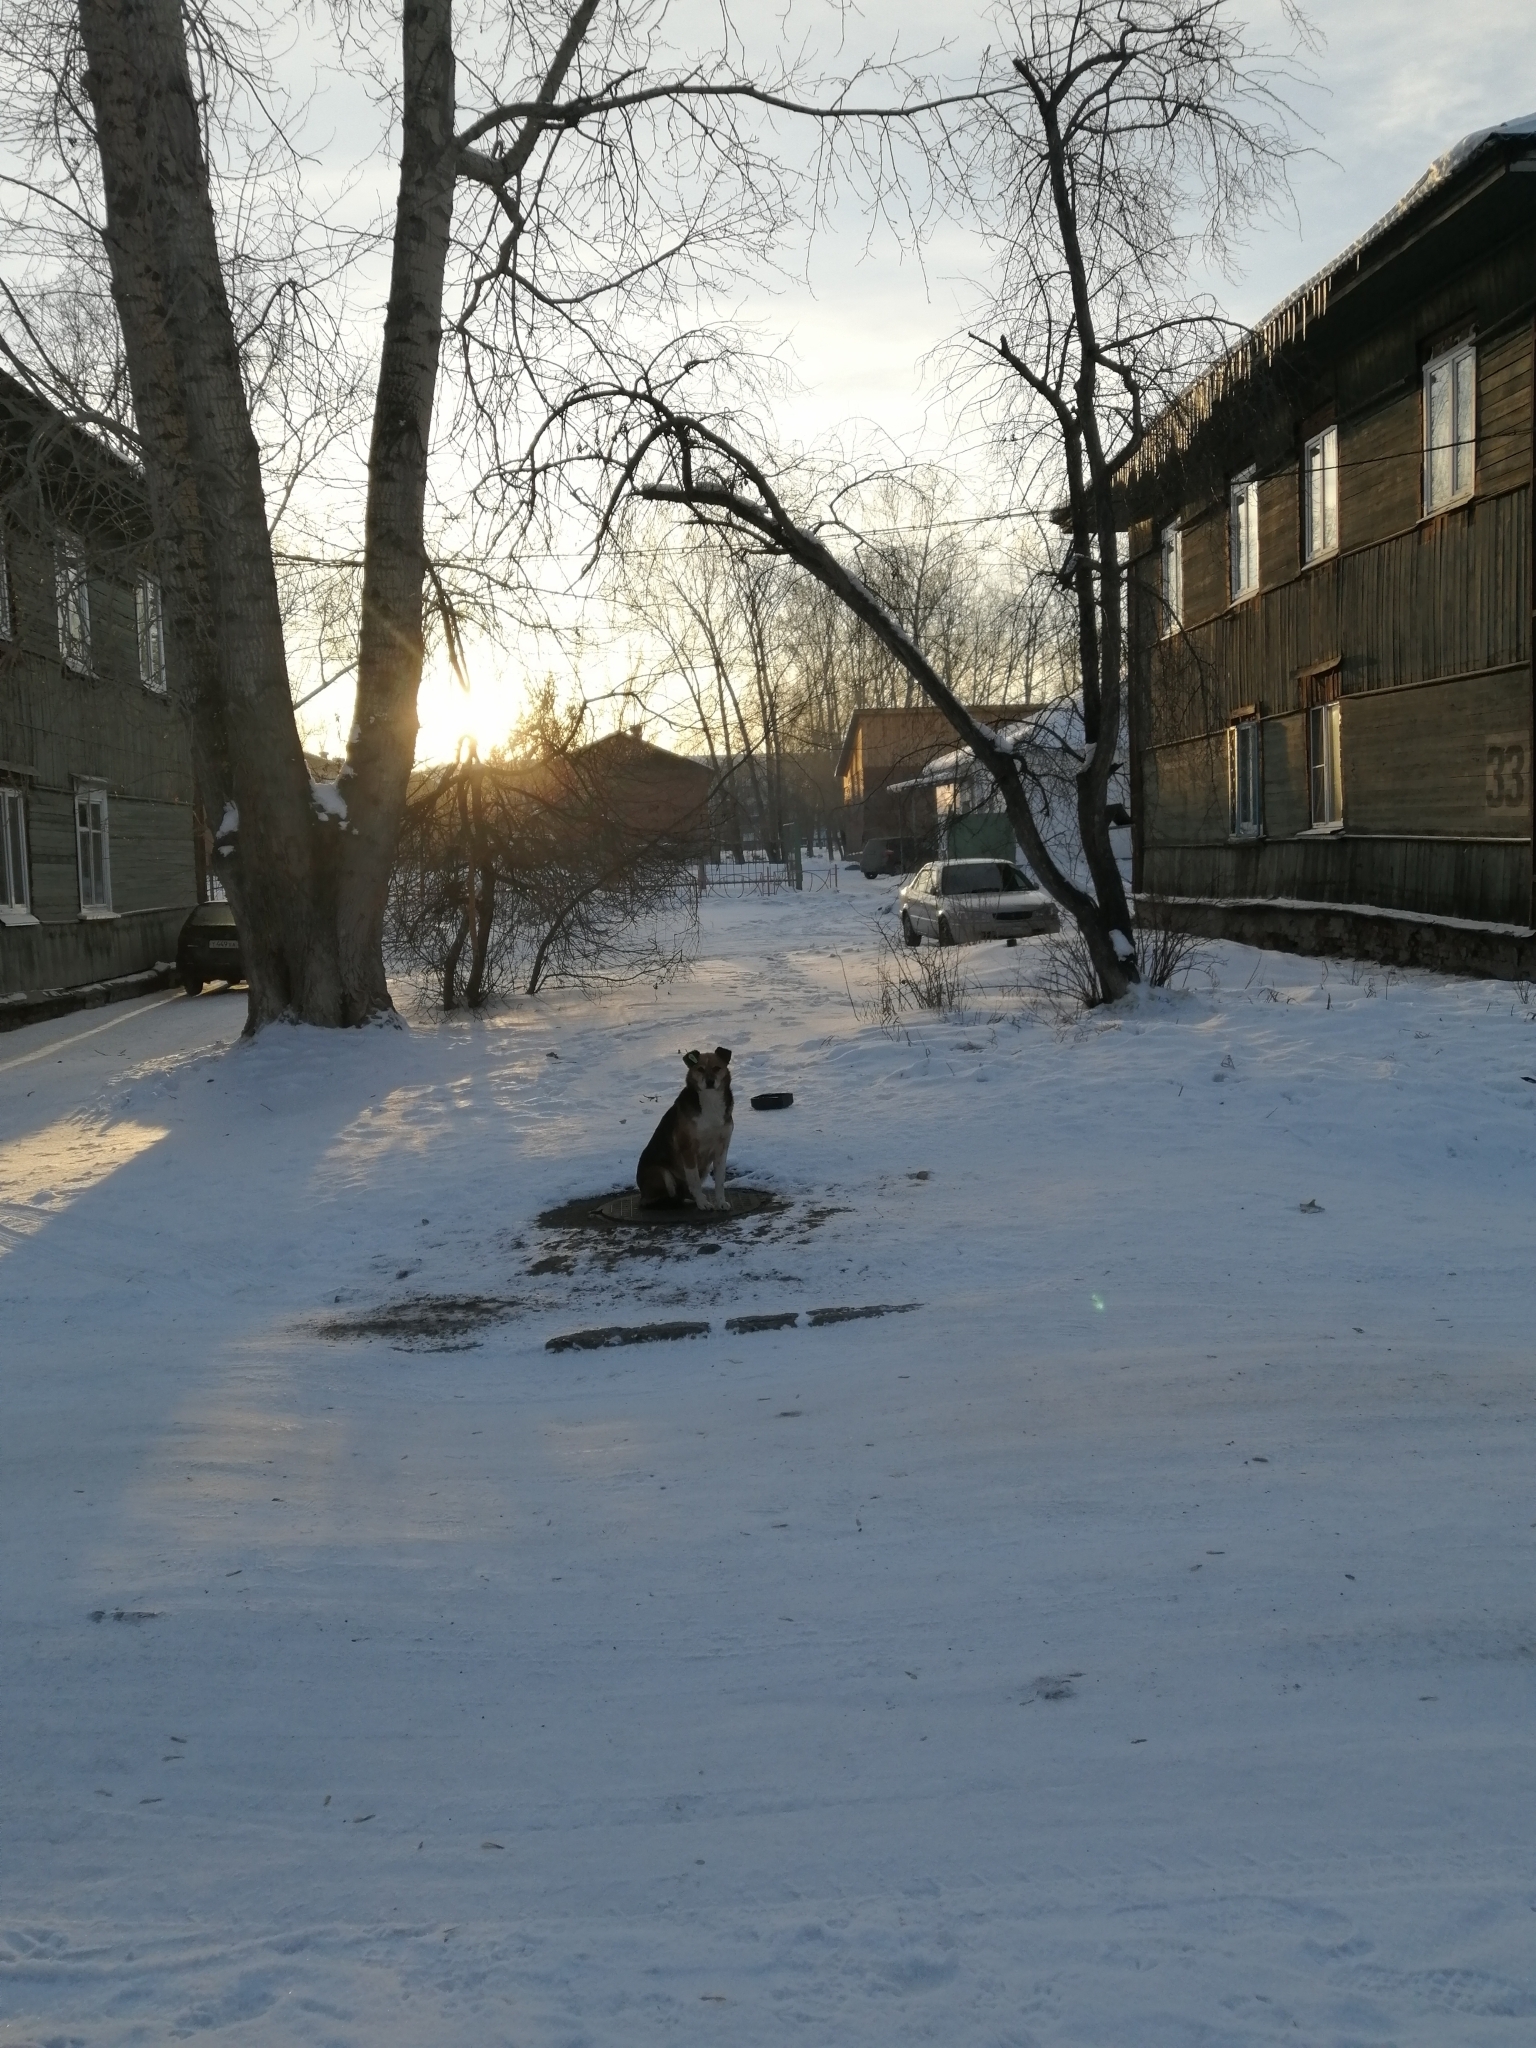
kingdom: Animalia
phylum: Chordata
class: Mammalia
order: Carnivora
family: Canidae
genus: Canis
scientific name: Canis lupus
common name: Gray wolf
